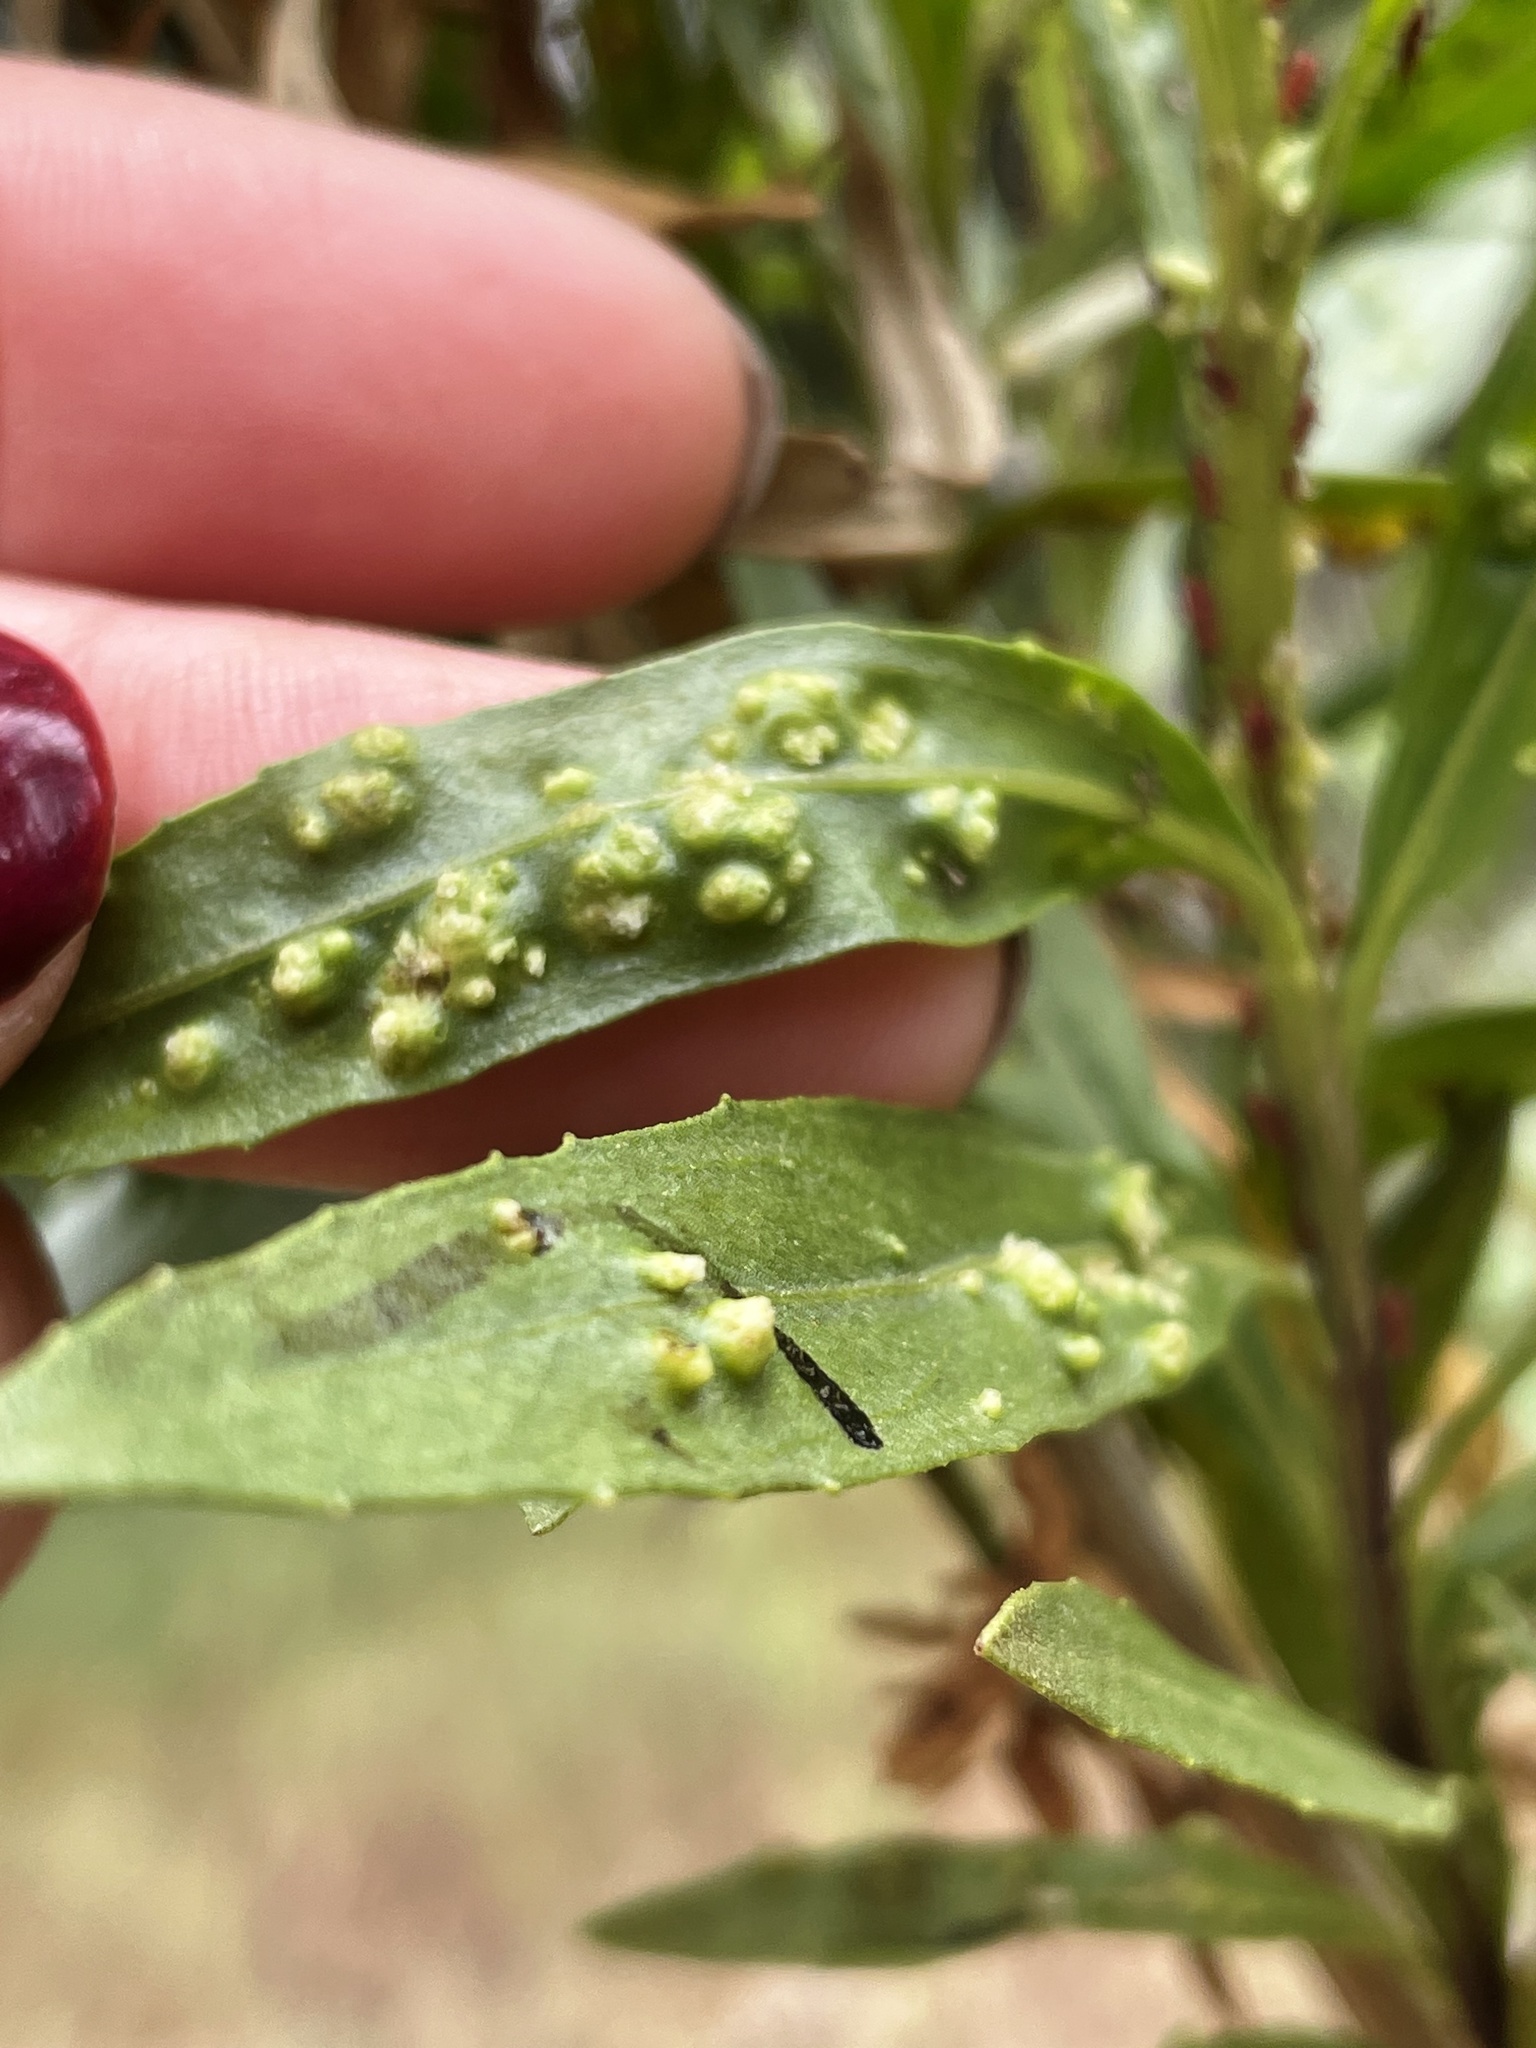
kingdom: Animalia
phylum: Arthropoda
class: Arachnida
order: Trombidiformes
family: Eriophyidae
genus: Aceria
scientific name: Aceria
